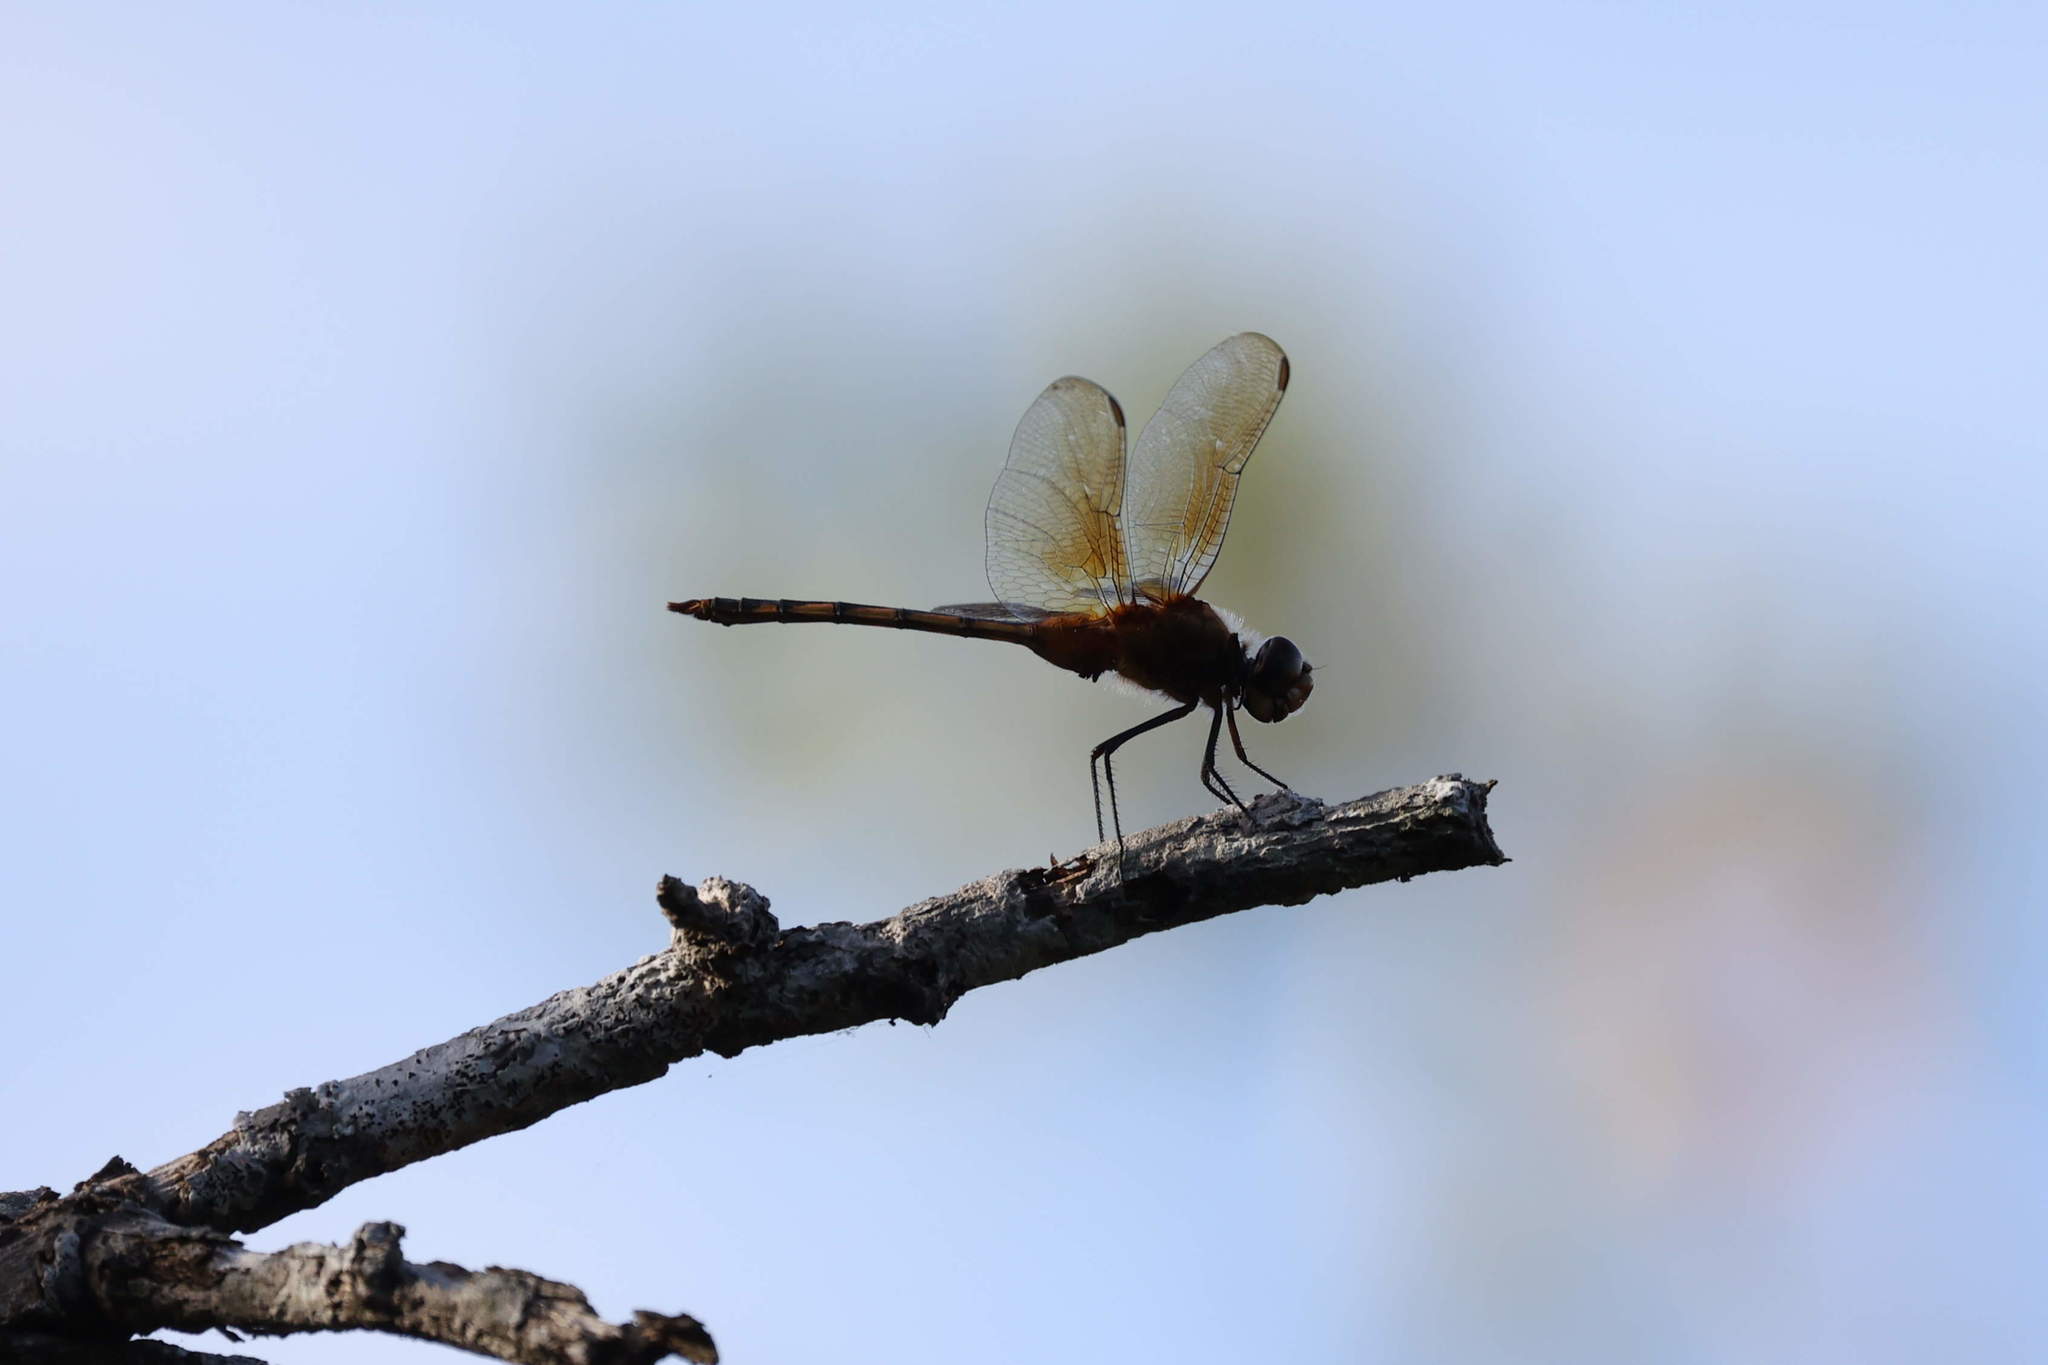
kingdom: Animalia
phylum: Arthropoda
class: Insecta
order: Odonata
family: Libellulidae
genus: Brachymesia
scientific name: Brachymesia herbida
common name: Tawny pennant
